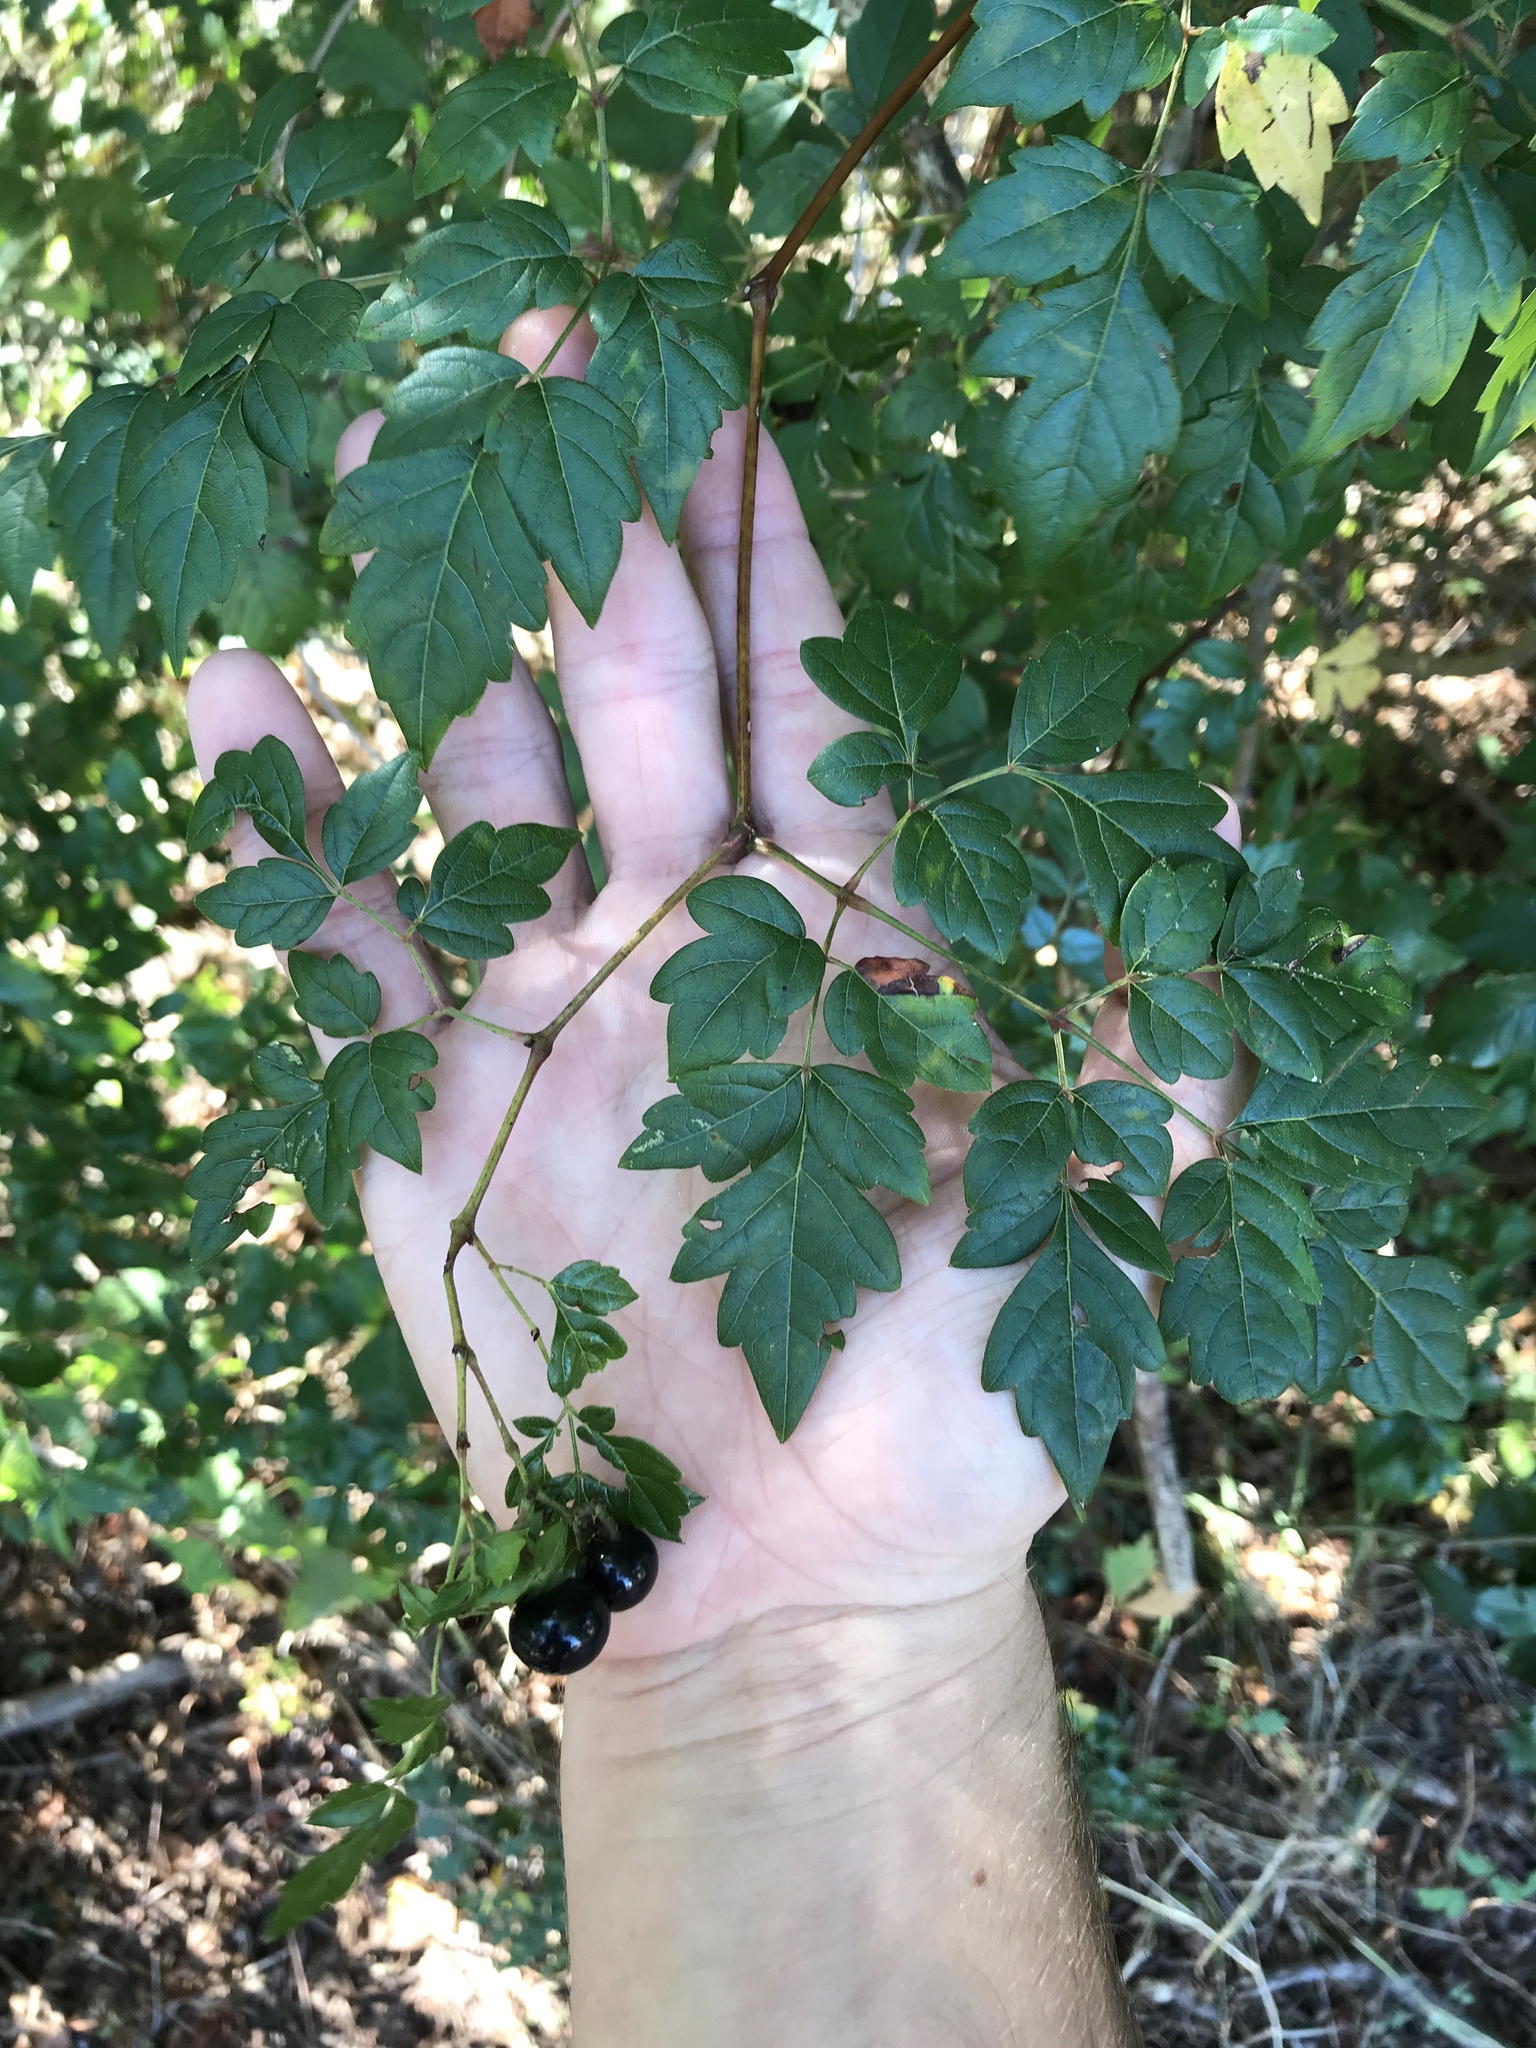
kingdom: Plantae
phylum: Tracheophyta
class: Magnoliopsida
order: Vitales
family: Vitaceae
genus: Nekemias
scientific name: Nekemias arborea
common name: Peppervine
